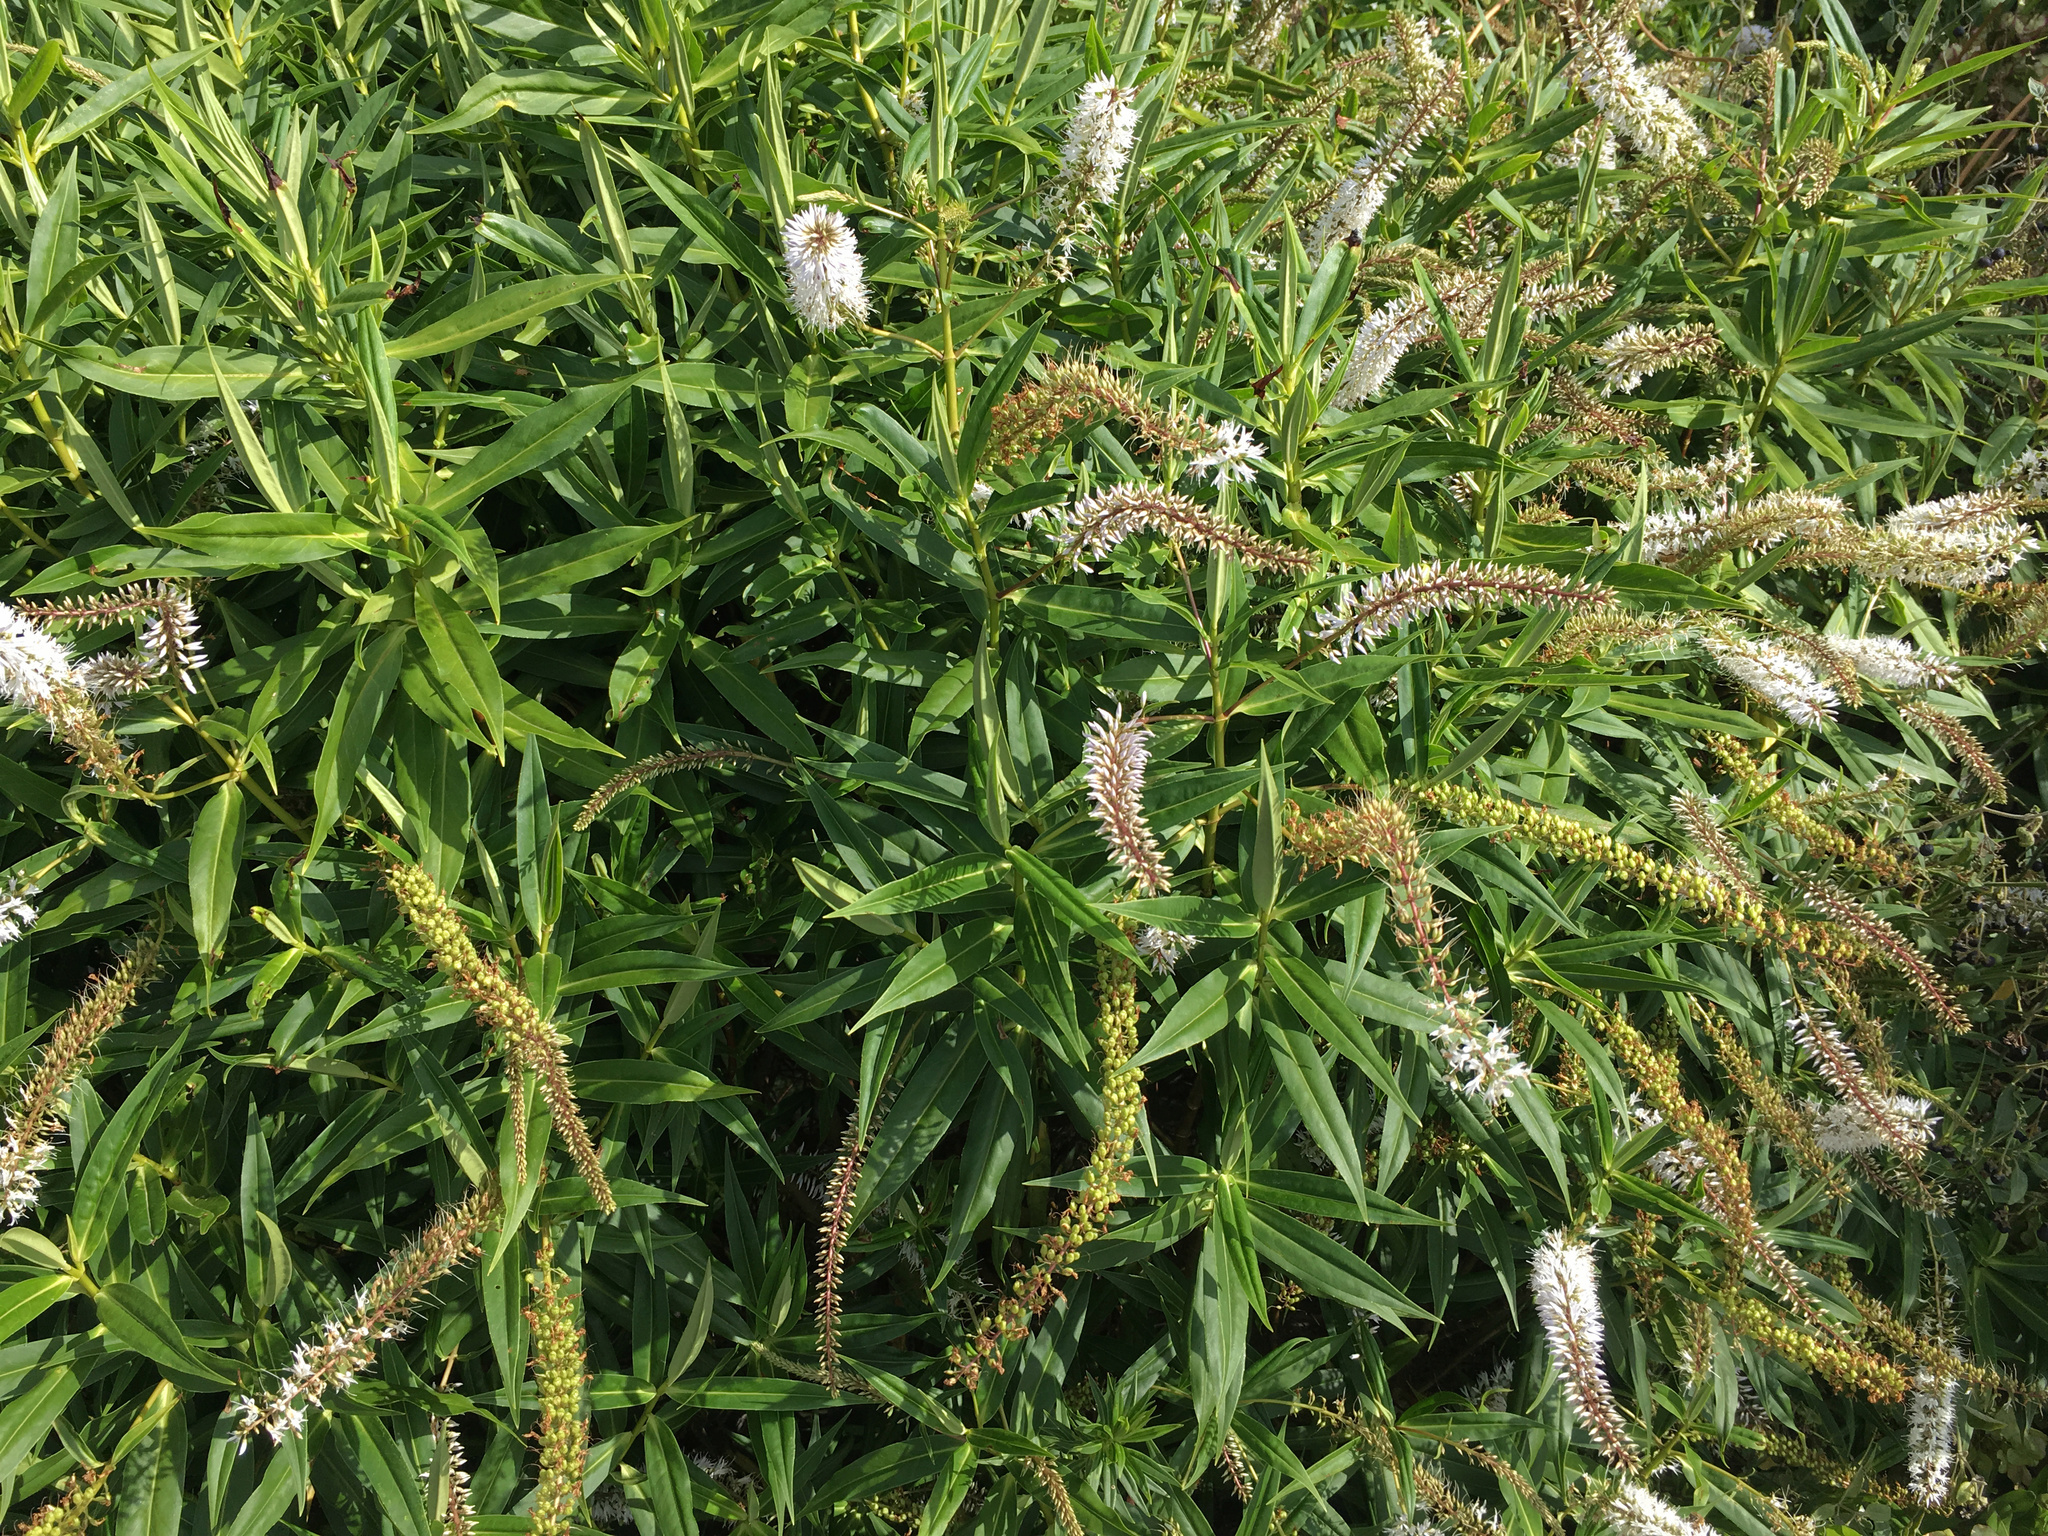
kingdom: Plantae
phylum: Tracheophyta
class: Magnoliopsida
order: Lamiales
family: Plantaginaceae
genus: Veronica
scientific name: Veronica salicifolia
